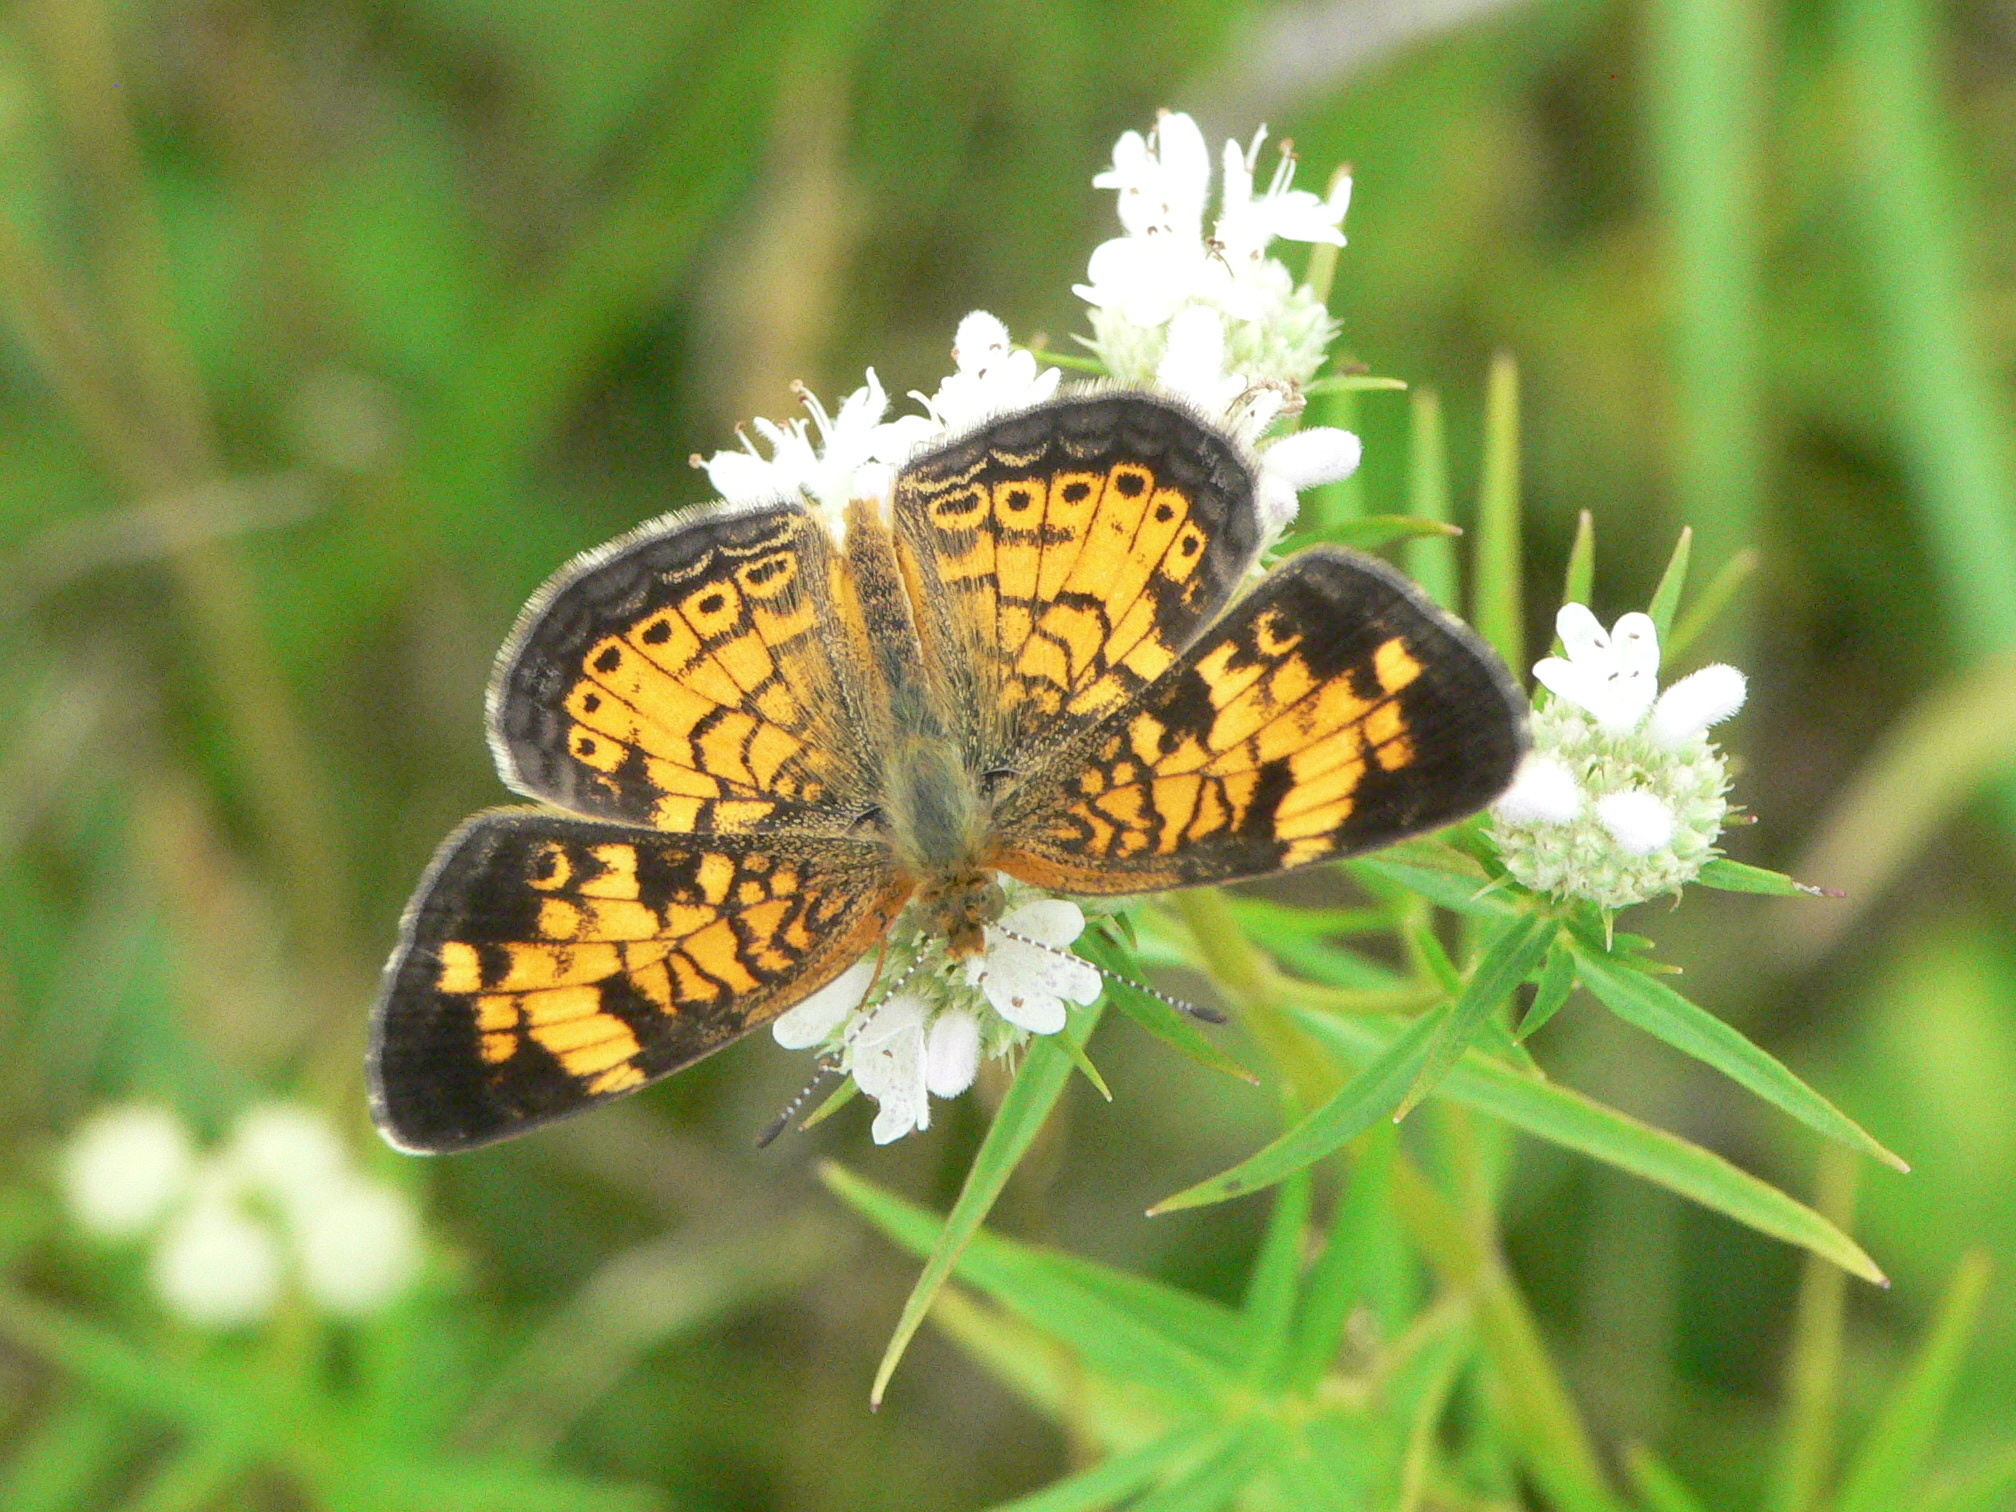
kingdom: Animalia
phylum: Arthropoda
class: Insecta
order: Lepidoptera
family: Nymphalidae
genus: Phyciodes
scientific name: Phyciodes tharos
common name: Pearl crescent
